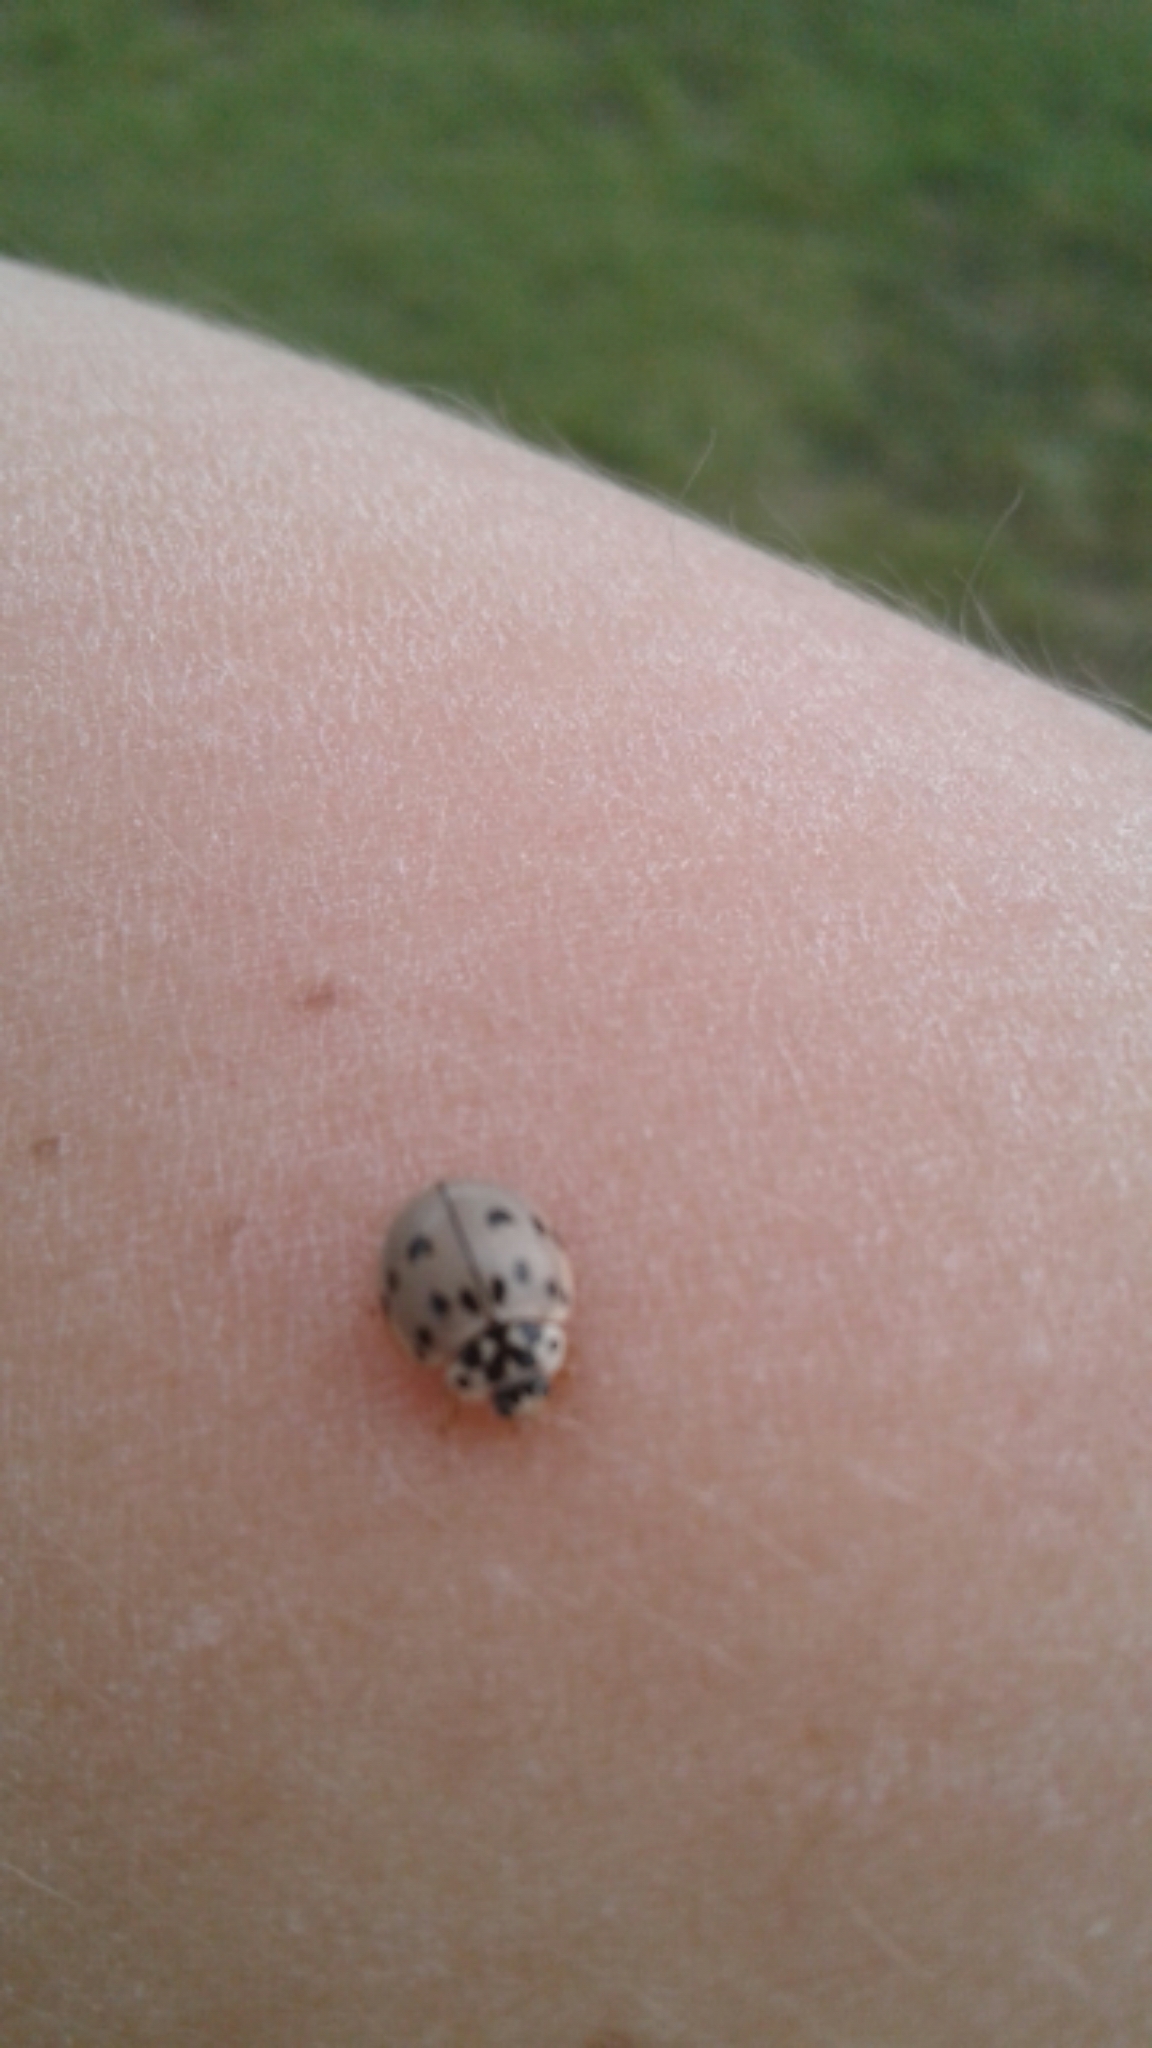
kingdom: Animalia
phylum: Arthropoda
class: Insecta
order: Coleoptera
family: Coccinellidae
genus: Olla
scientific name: Olla v-nigrum
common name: Ashy gray lady beetle
